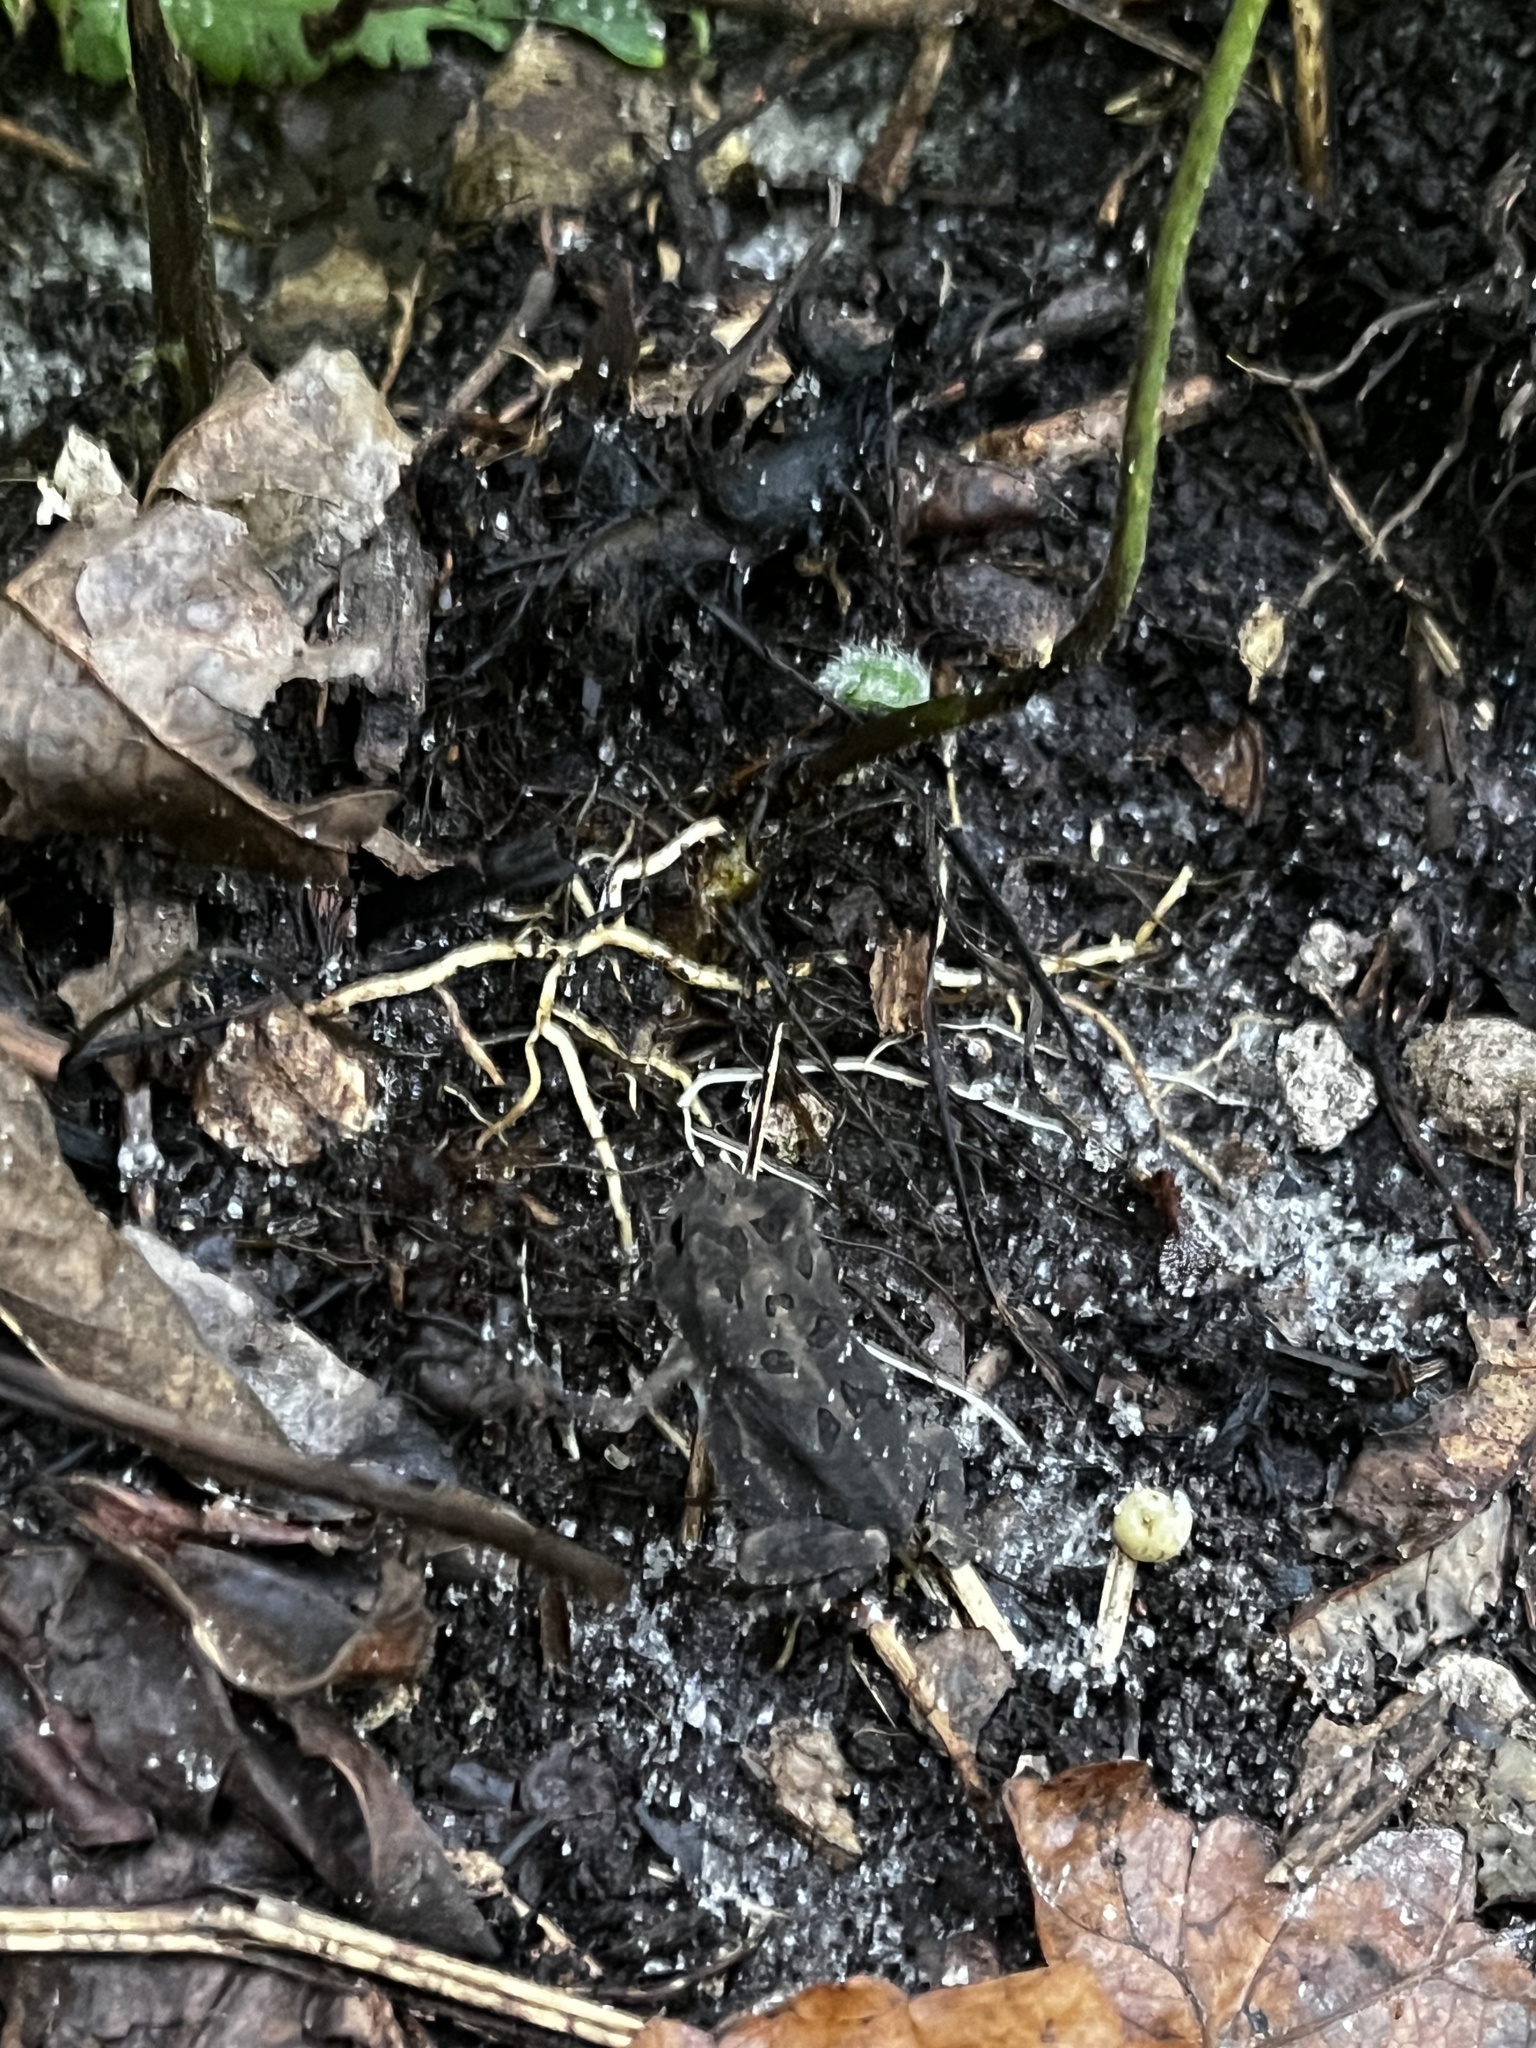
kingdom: Animalia
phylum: Chordata
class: Amphibia
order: Anura
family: Bufonidae
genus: Anaxyrus
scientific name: Anaxyrus terrestris
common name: Southern toad
